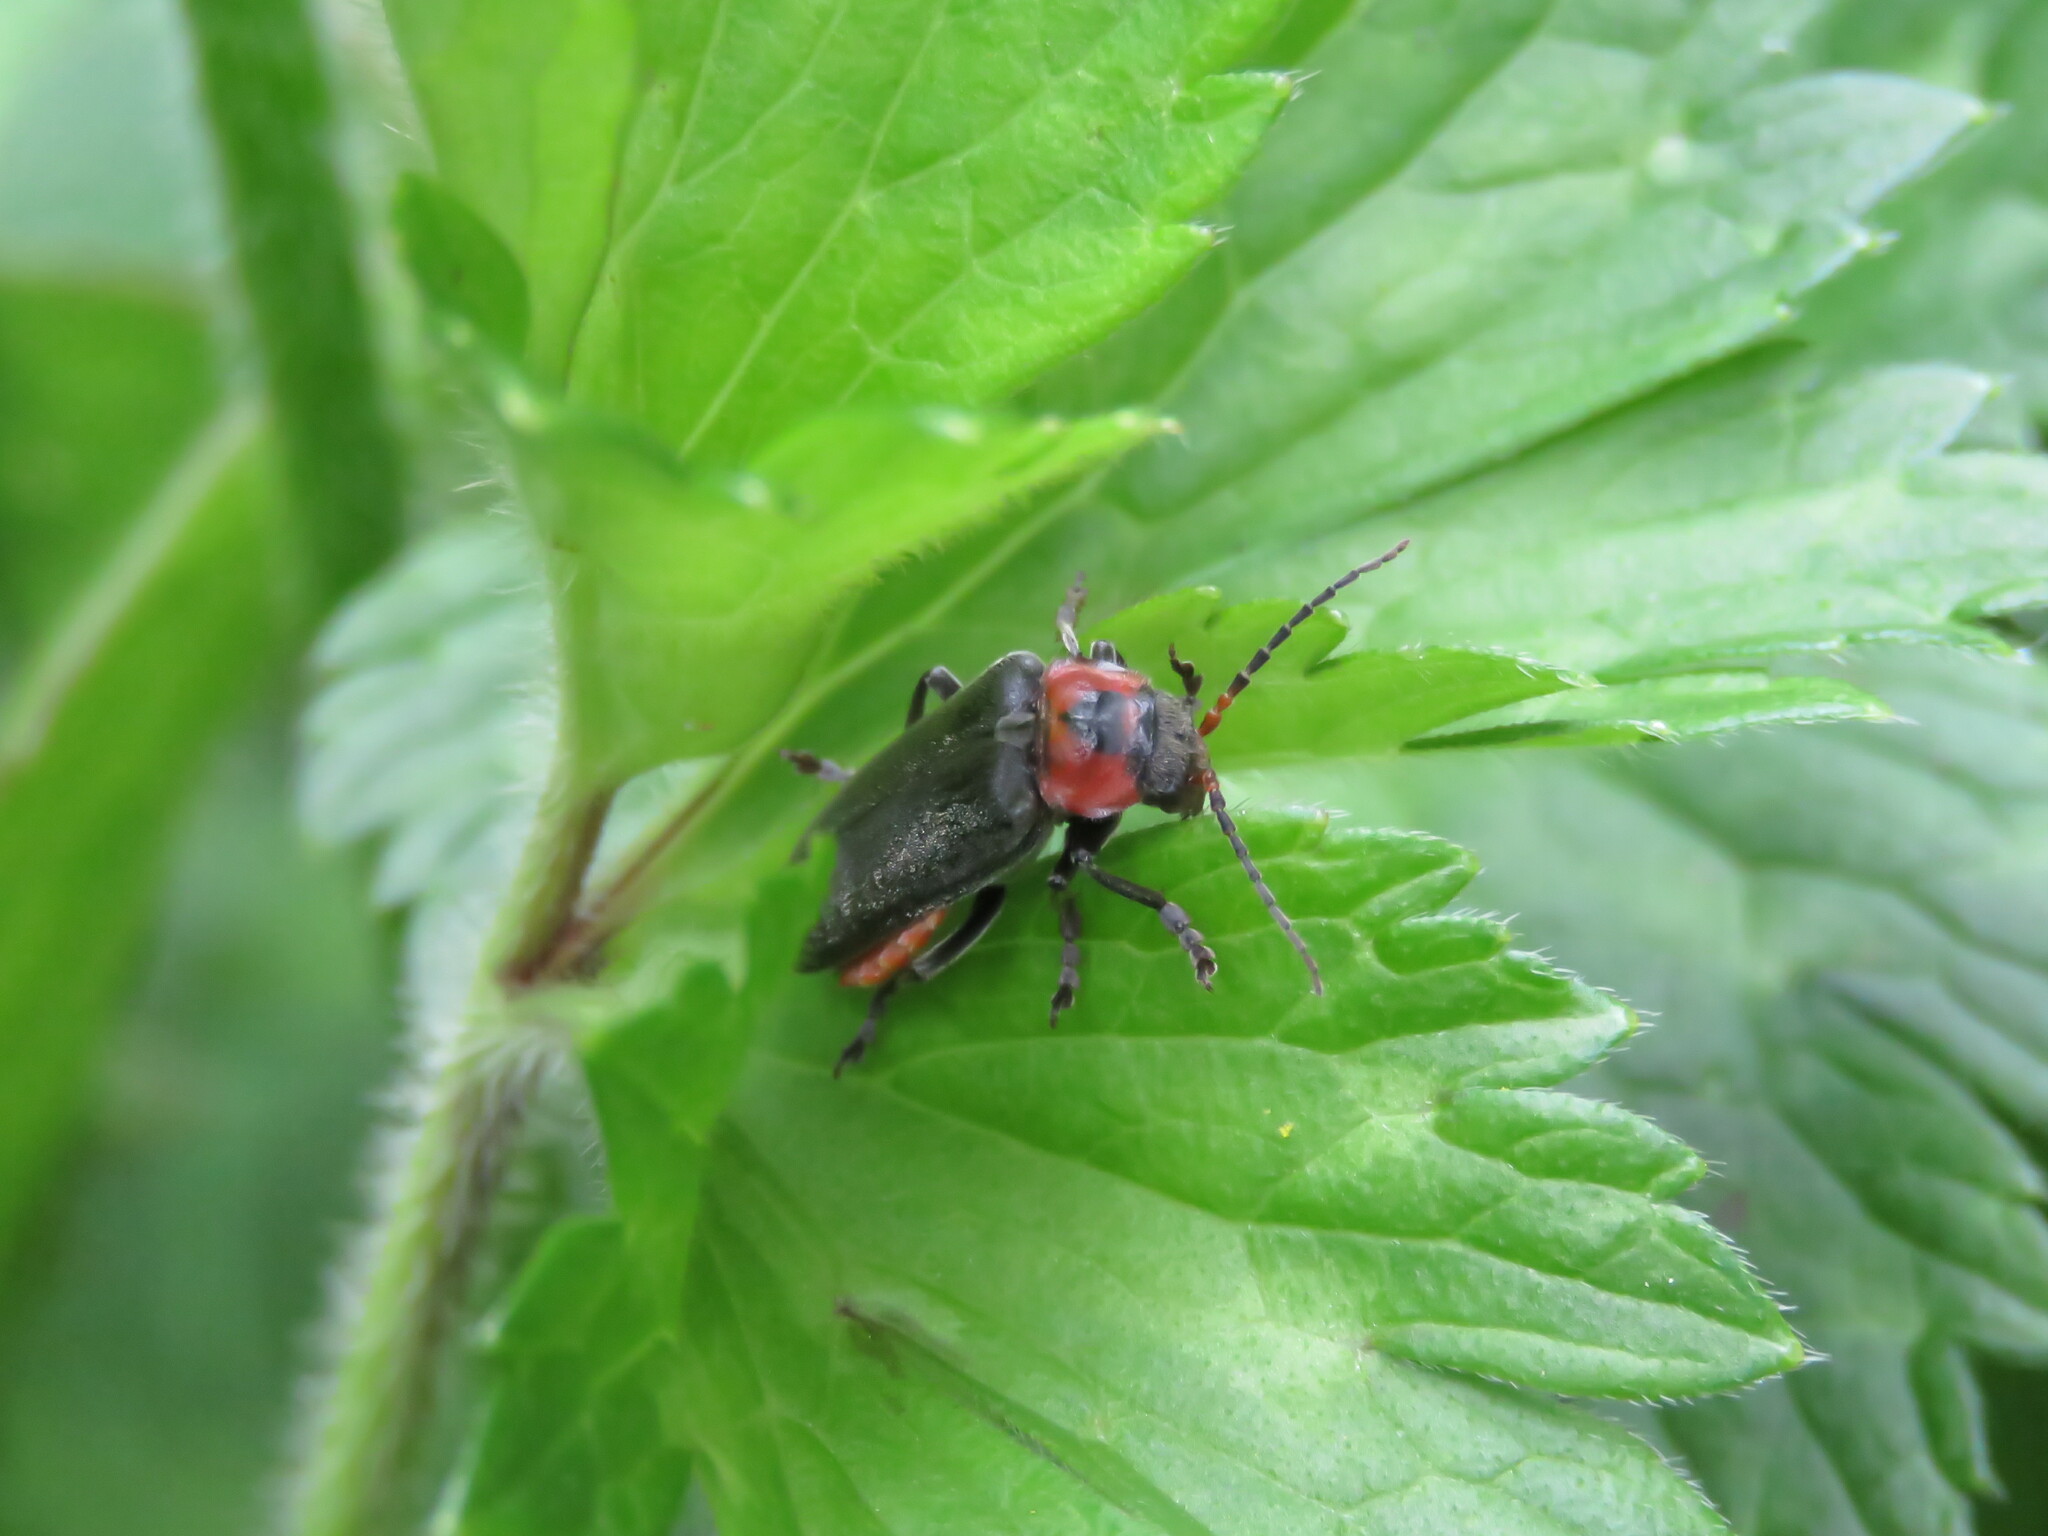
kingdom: Animalia
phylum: Arthropoda
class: Insecta
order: Coleoptera
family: Cantharidae
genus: Cantharis
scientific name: Cantharis reichei
